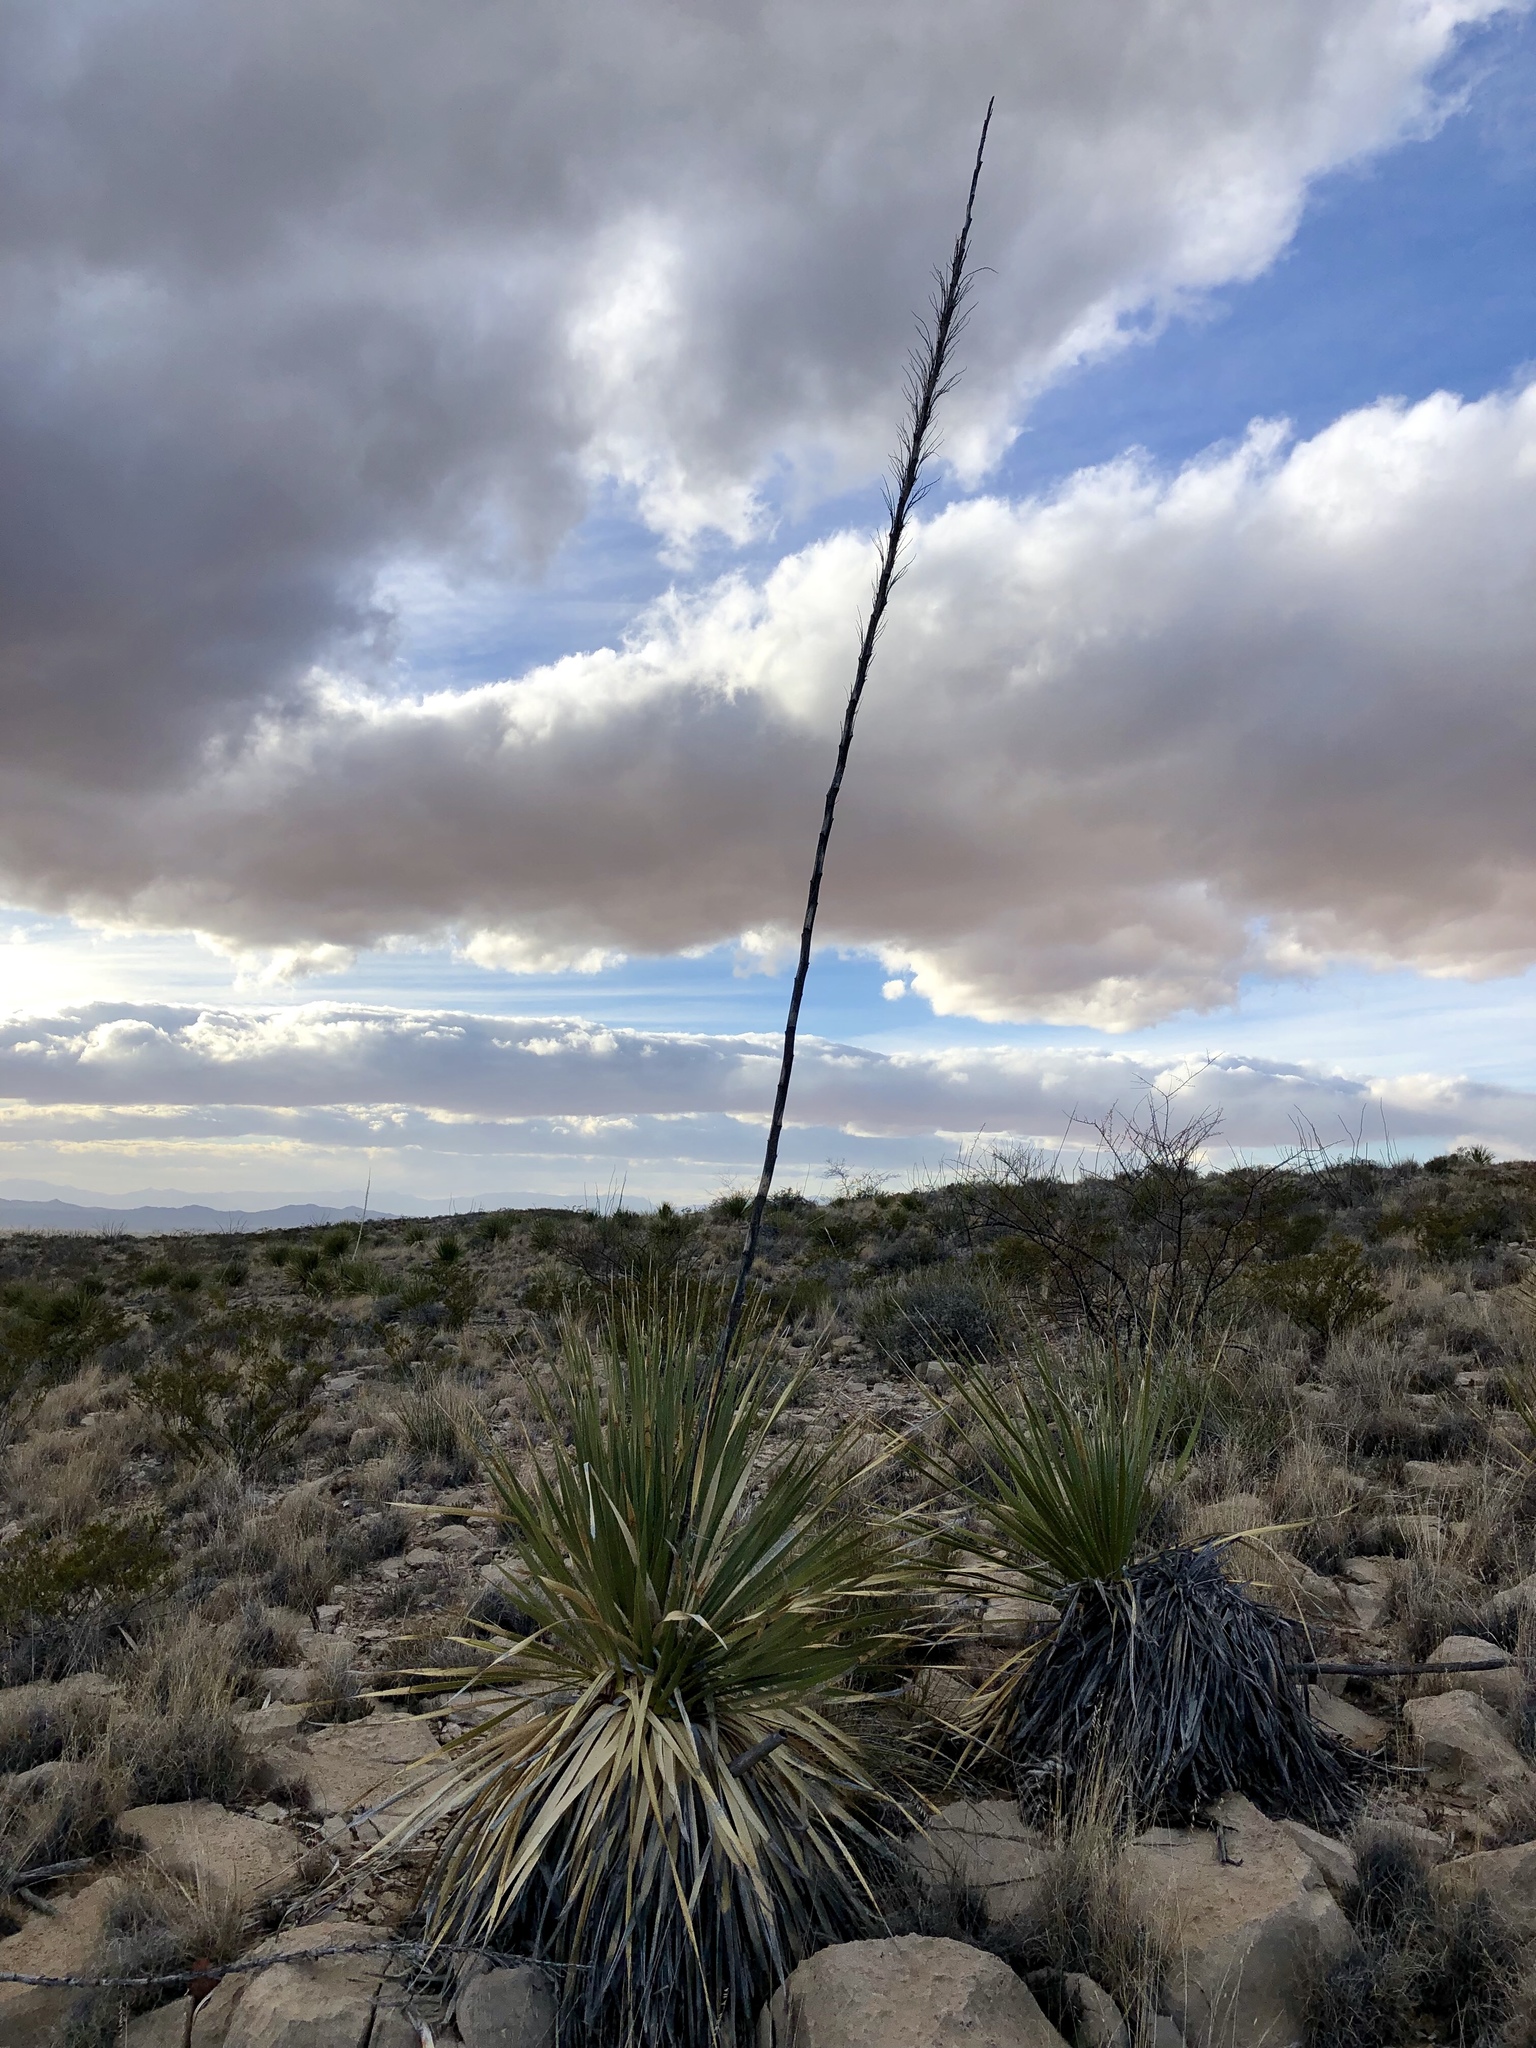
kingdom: Plantae
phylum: Tracheophyta
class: Liliopsida
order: Asparagales
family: Asparagaceae
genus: Dasylirion
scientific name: Dasylirion wheeleri
